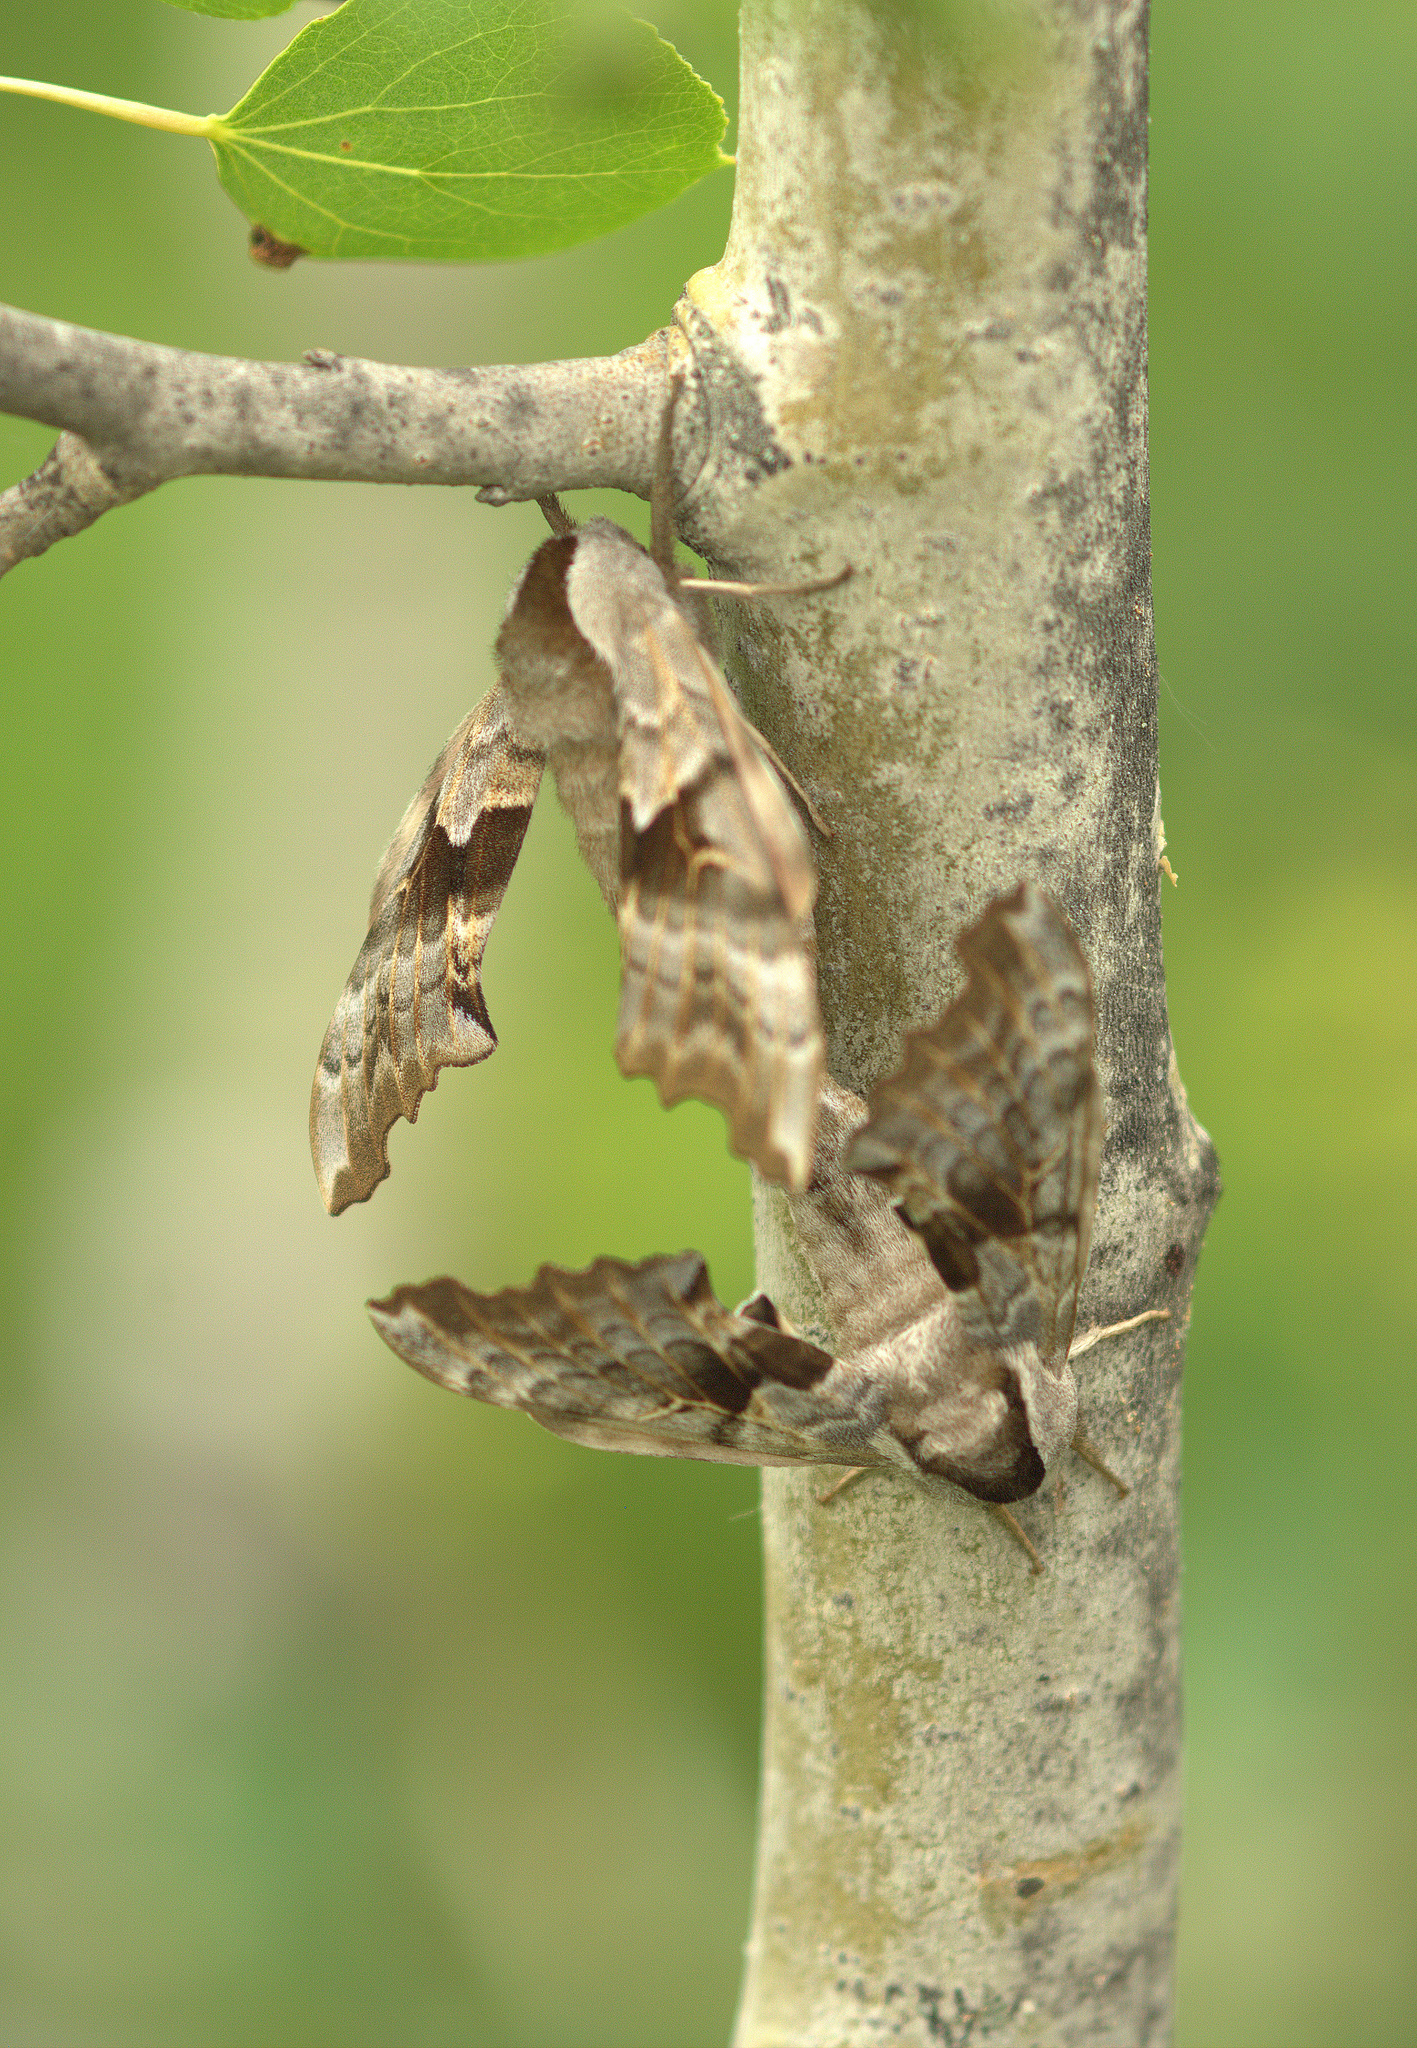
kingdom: Animalia
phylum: Arthropoda
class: Insecta
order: Lepidoptera
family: Sphingidae
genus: Smerinthus
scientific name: Smerinthus cerisyi
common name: Cerisy's sphinx moth
